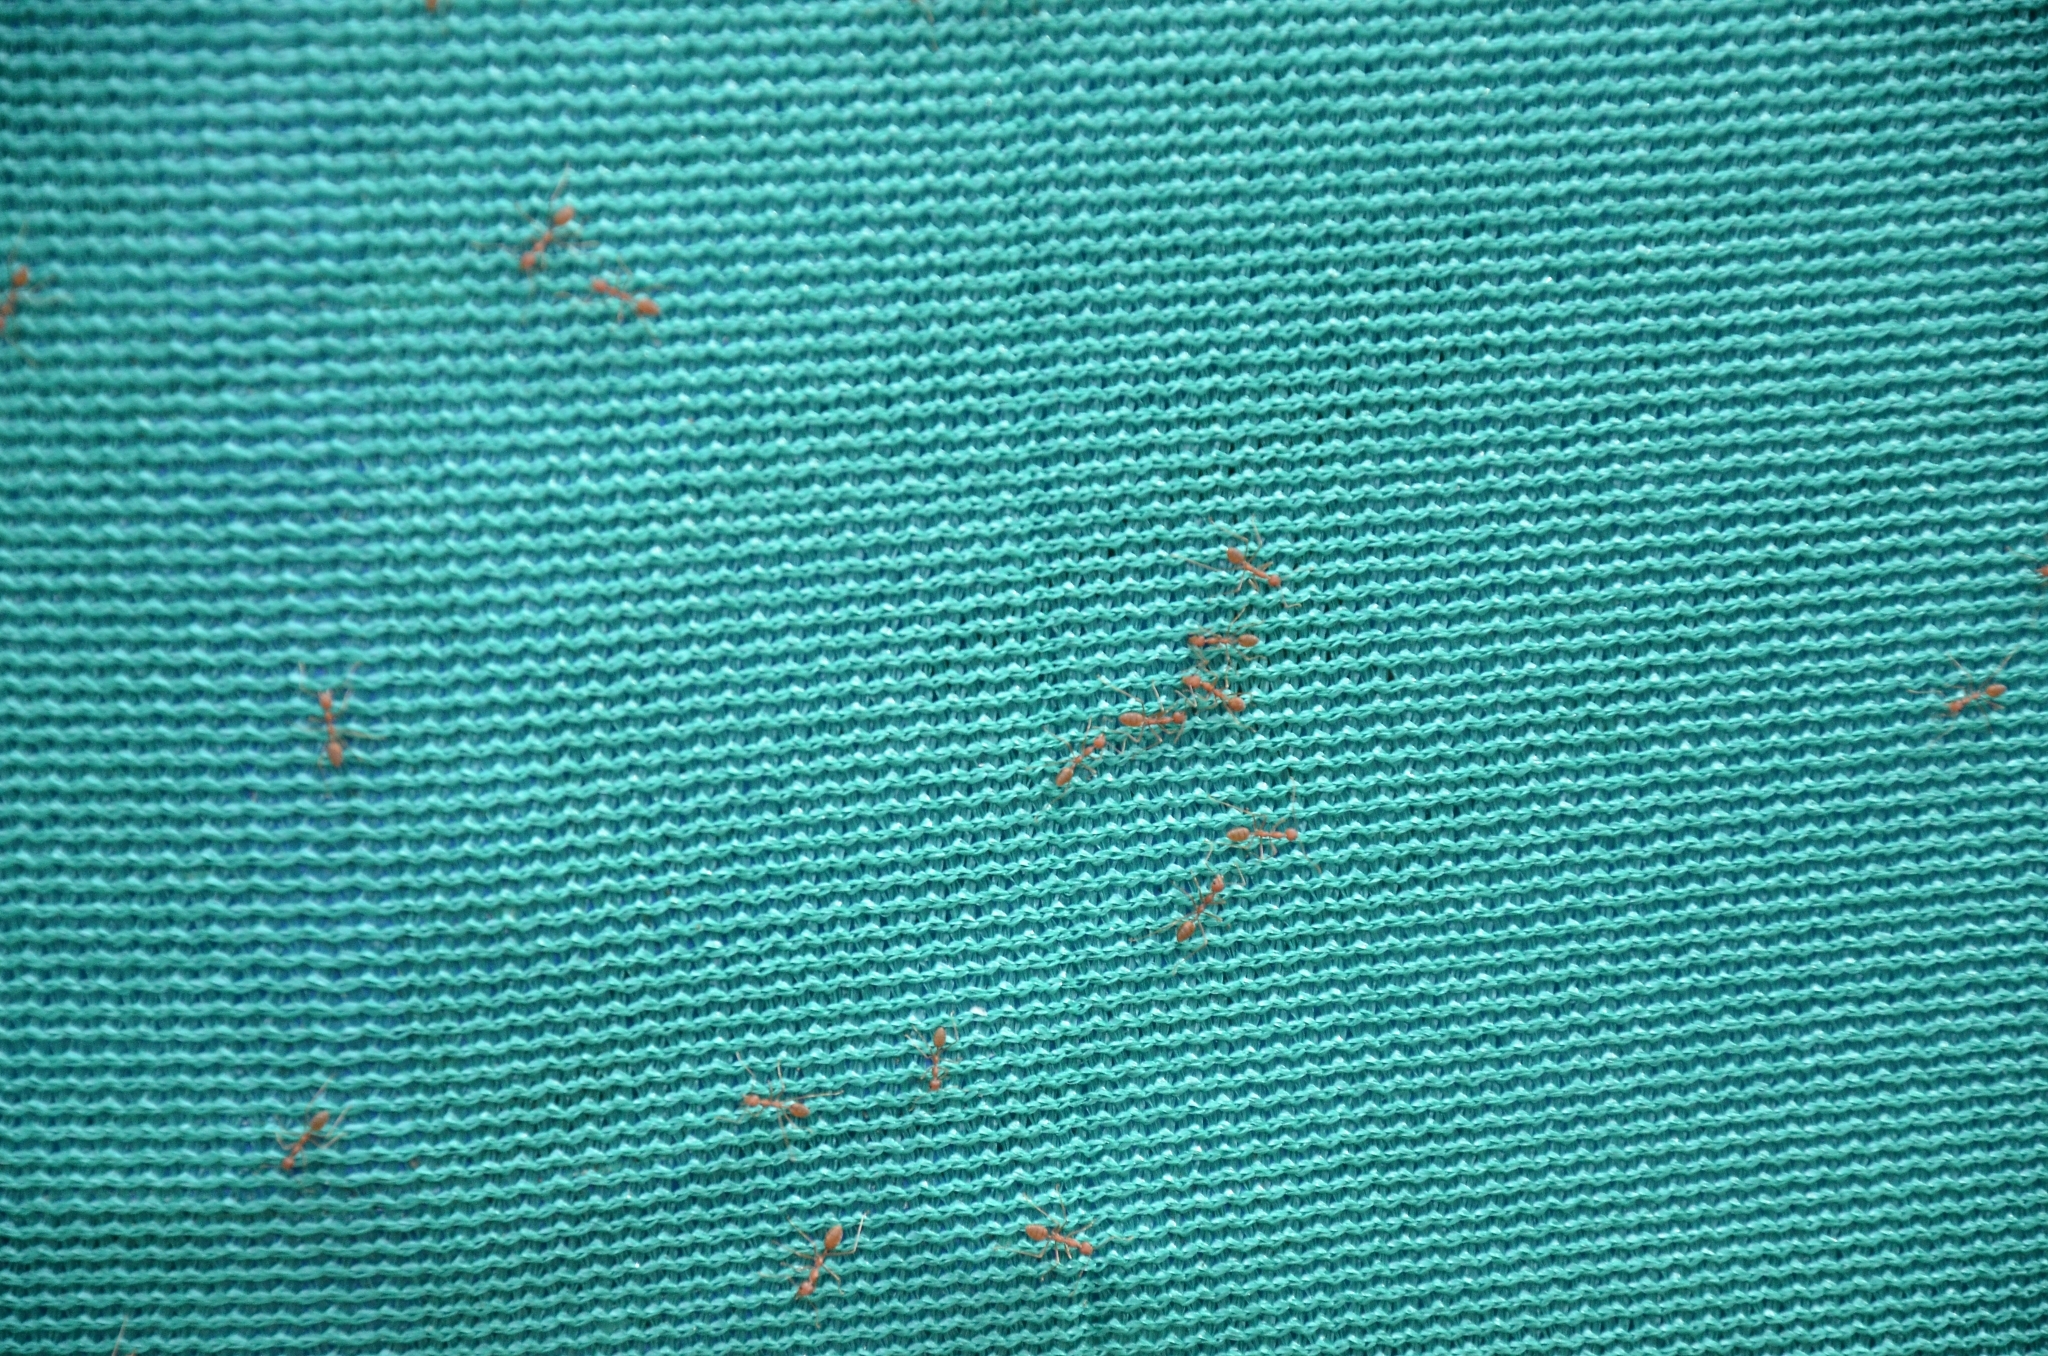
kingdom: Animalia
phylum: Arthropoda
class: Insecta
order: Hymenoptera
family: Formicidae
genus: Oecophylla
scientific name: Oecophylla smaragdina
